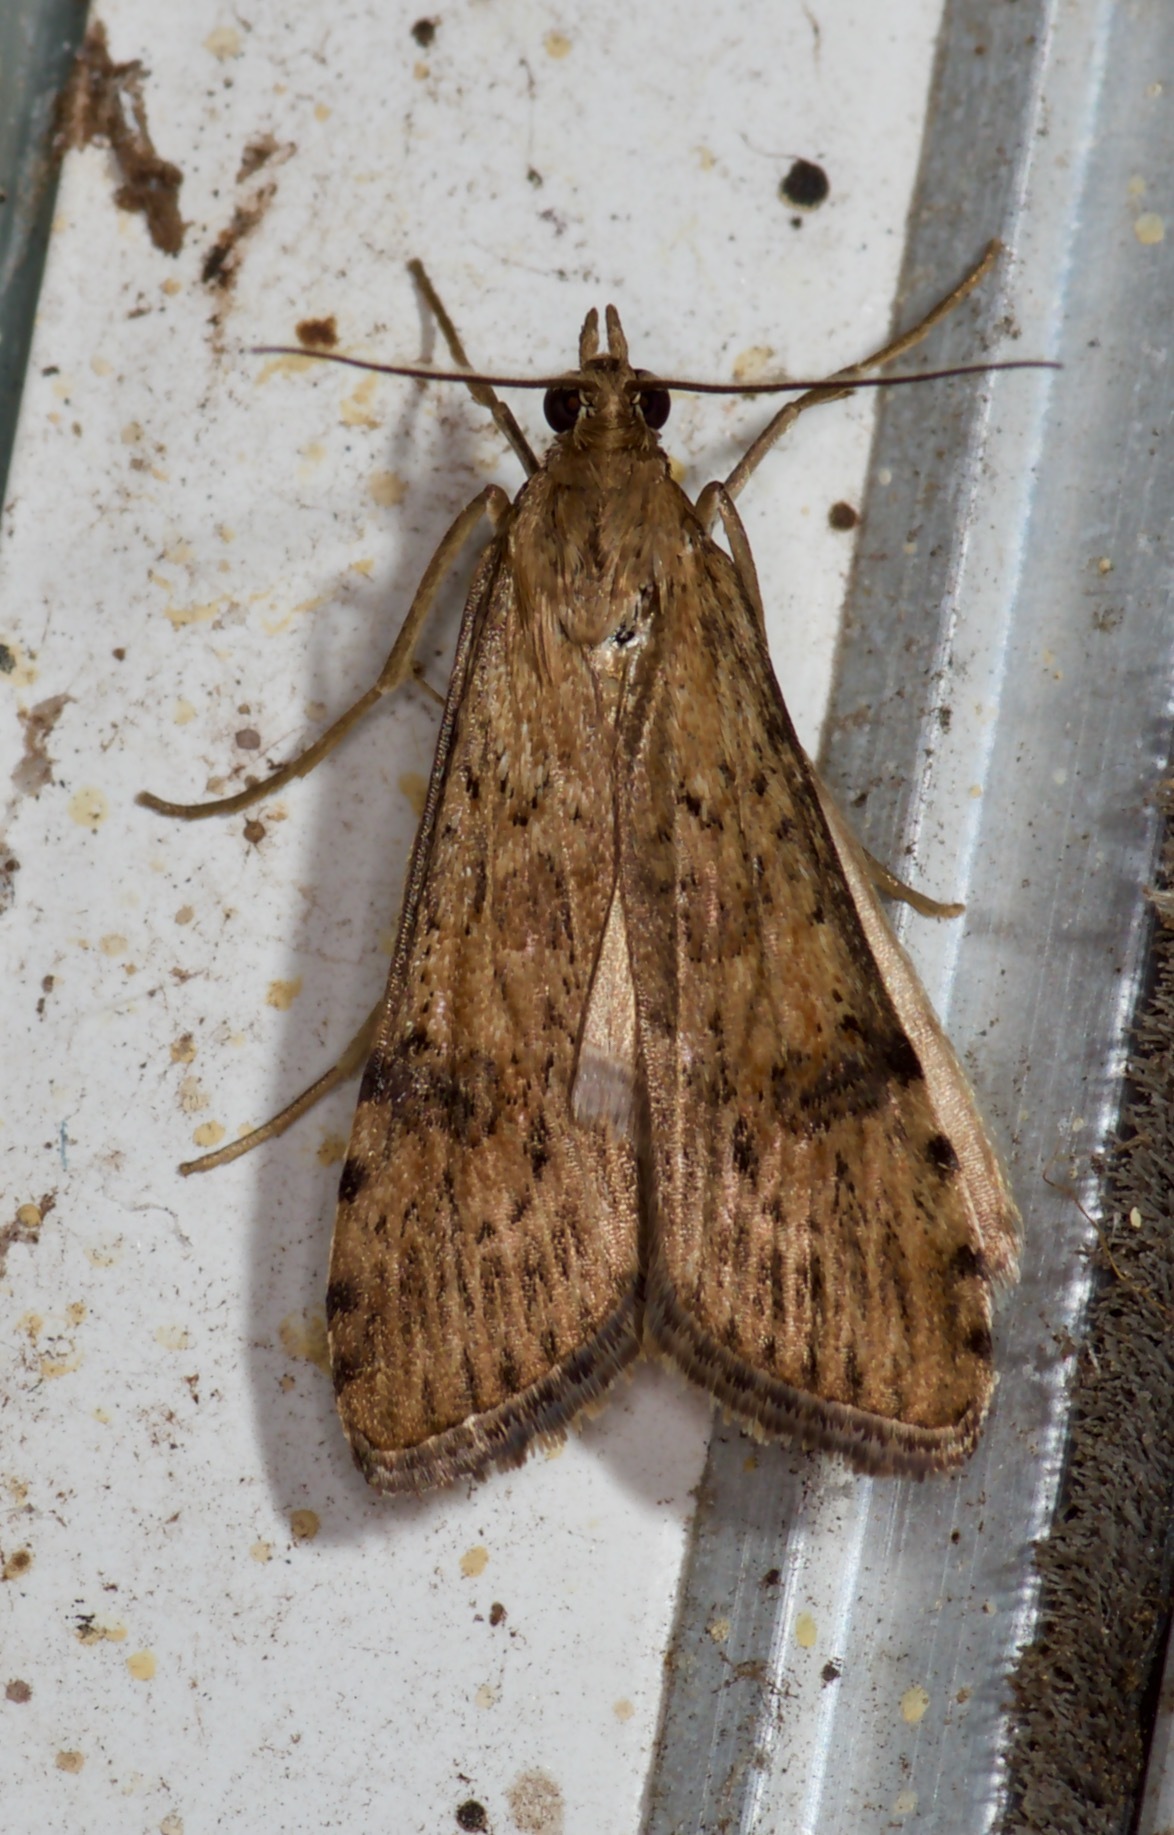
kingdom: Animalia
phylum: Arthropoda
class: Insecta
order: Lepidoptera
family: Crambidae
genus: Nomophila
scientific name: Nomophila nearctica
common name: American rush veneer
